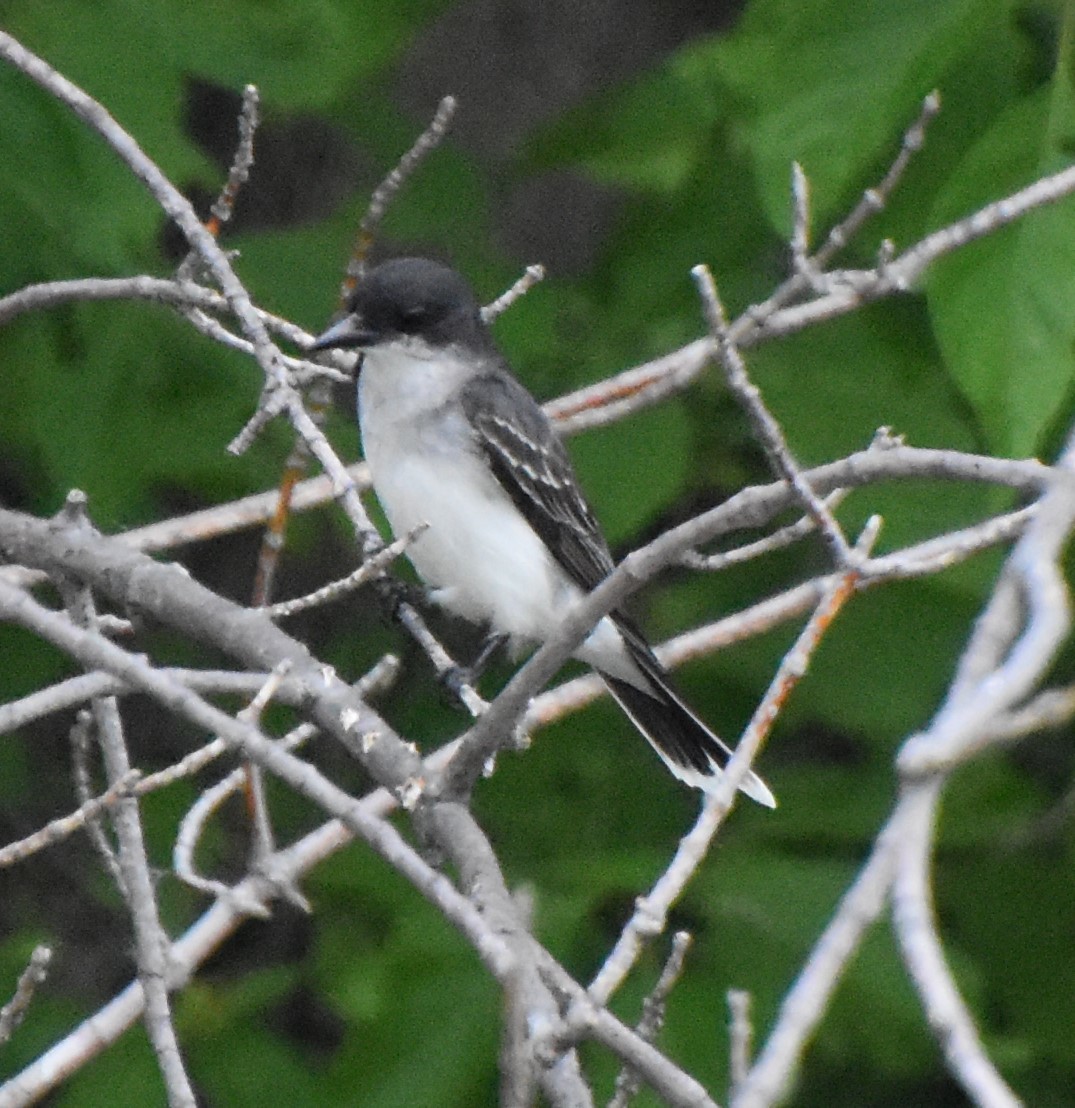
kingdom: Animalia
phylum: Chordata
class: Aves
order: Passeriformes
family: Tyrannidae
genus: Tyrannus
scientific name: Tyrannus tyrannus
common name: Eastern kingbird
